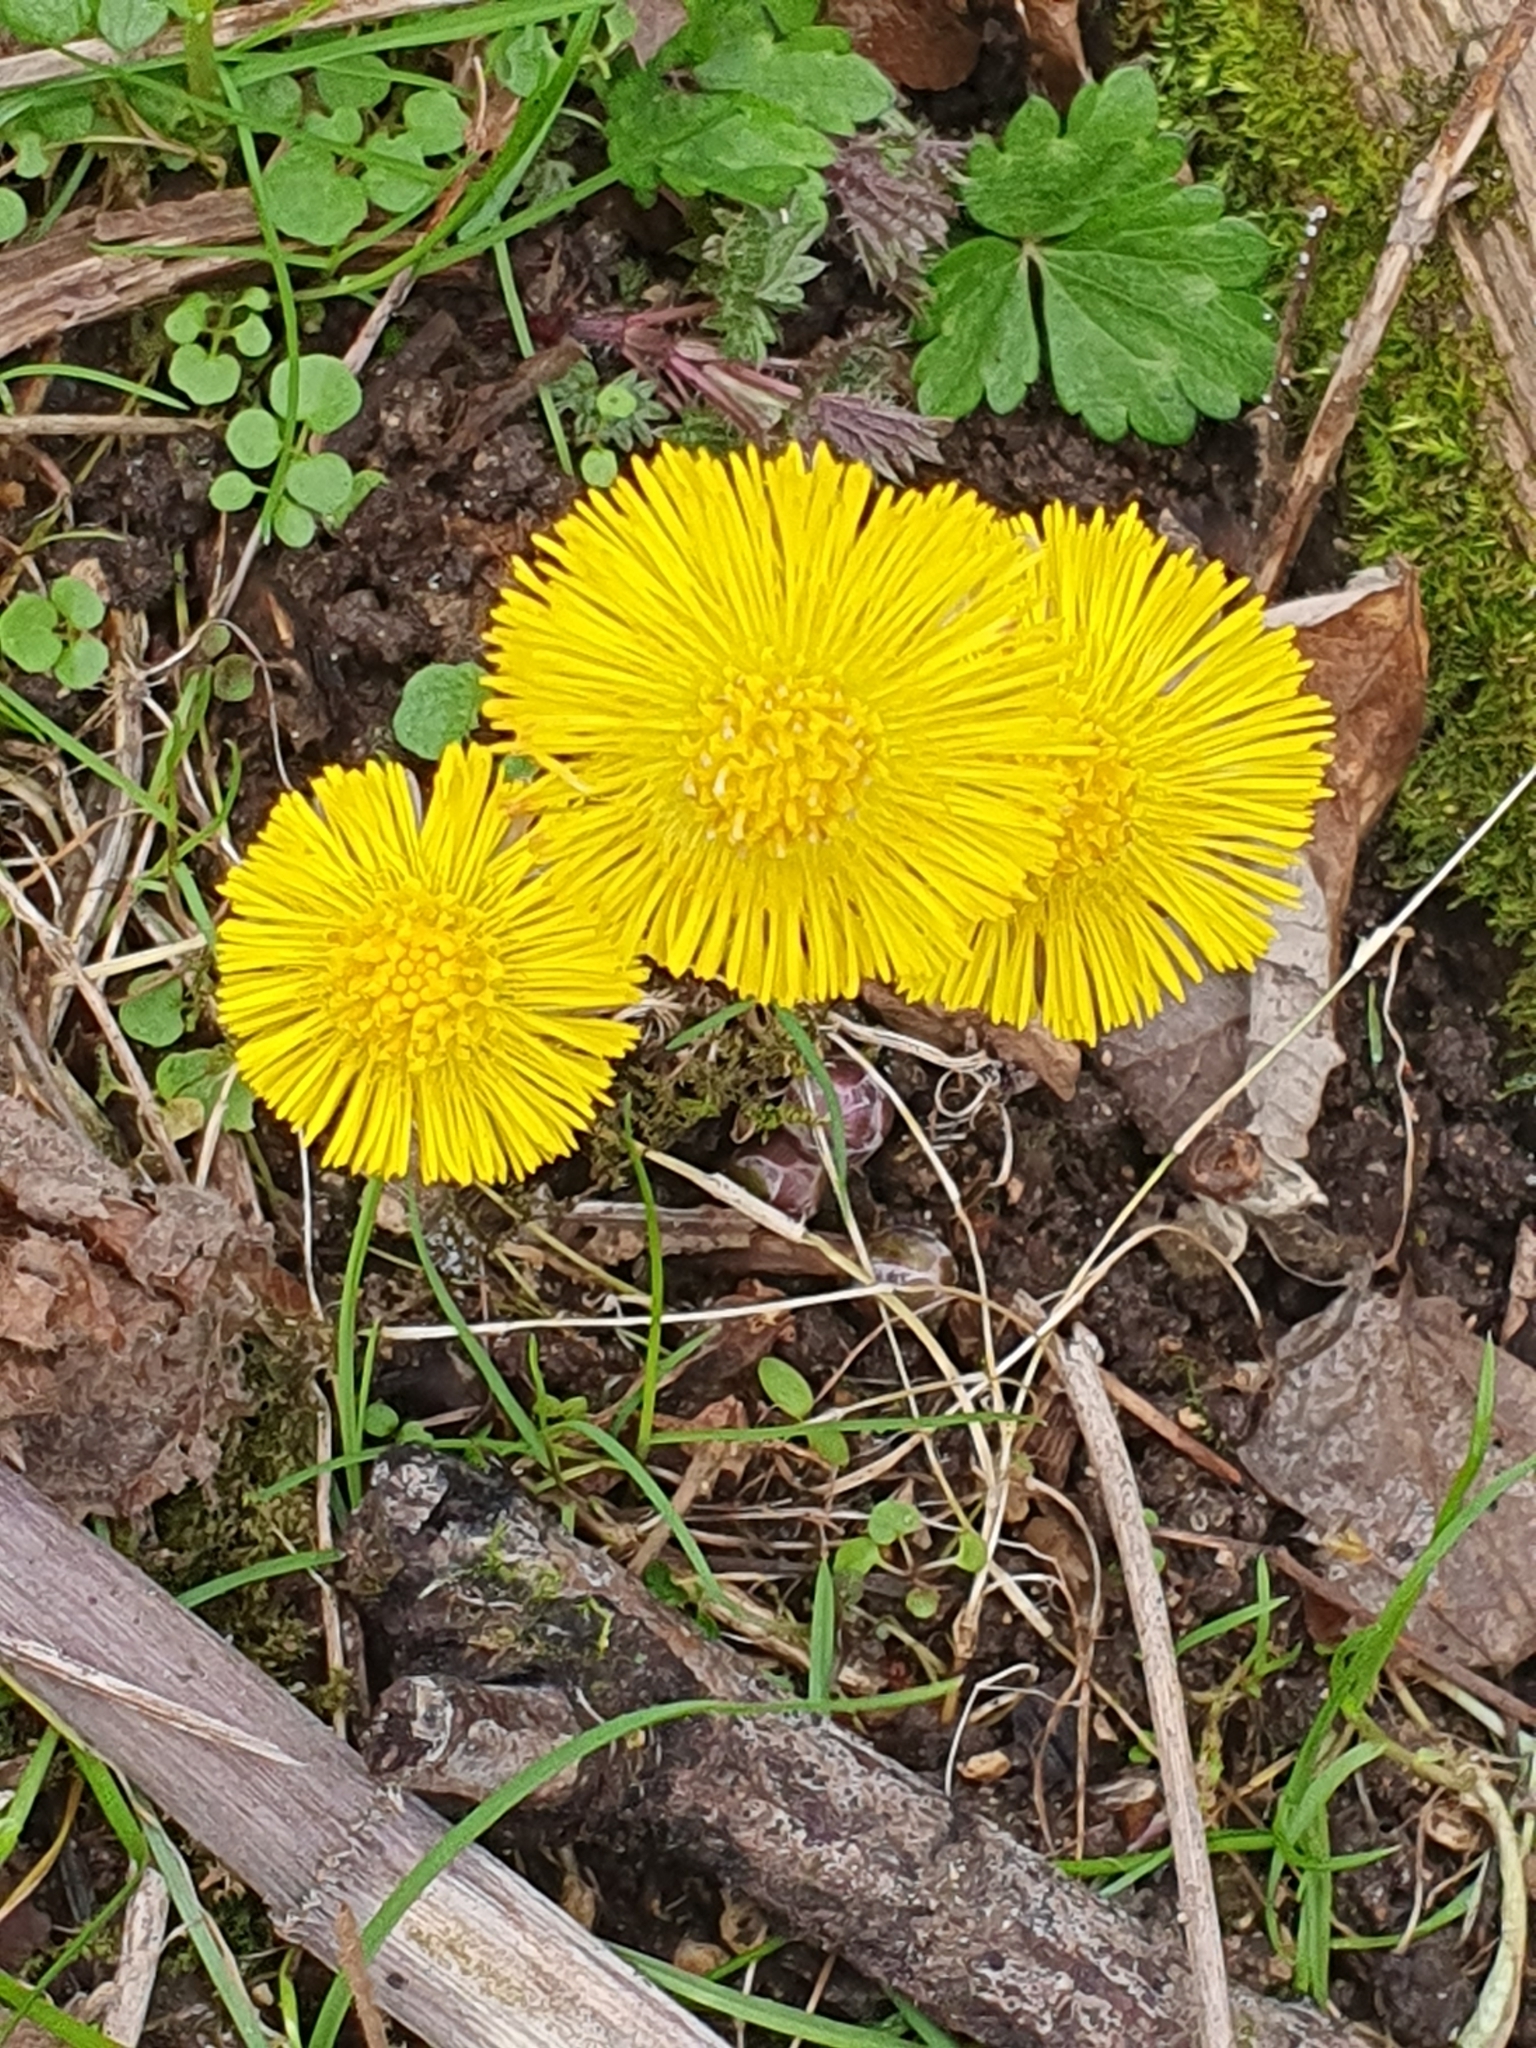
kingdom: Plantae
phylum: Tracheophyta
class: Magnoliopsida
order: Asterales
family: Asteraceae
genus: Tussilago
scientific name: Tussilago farfara
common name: Coltsfoot
